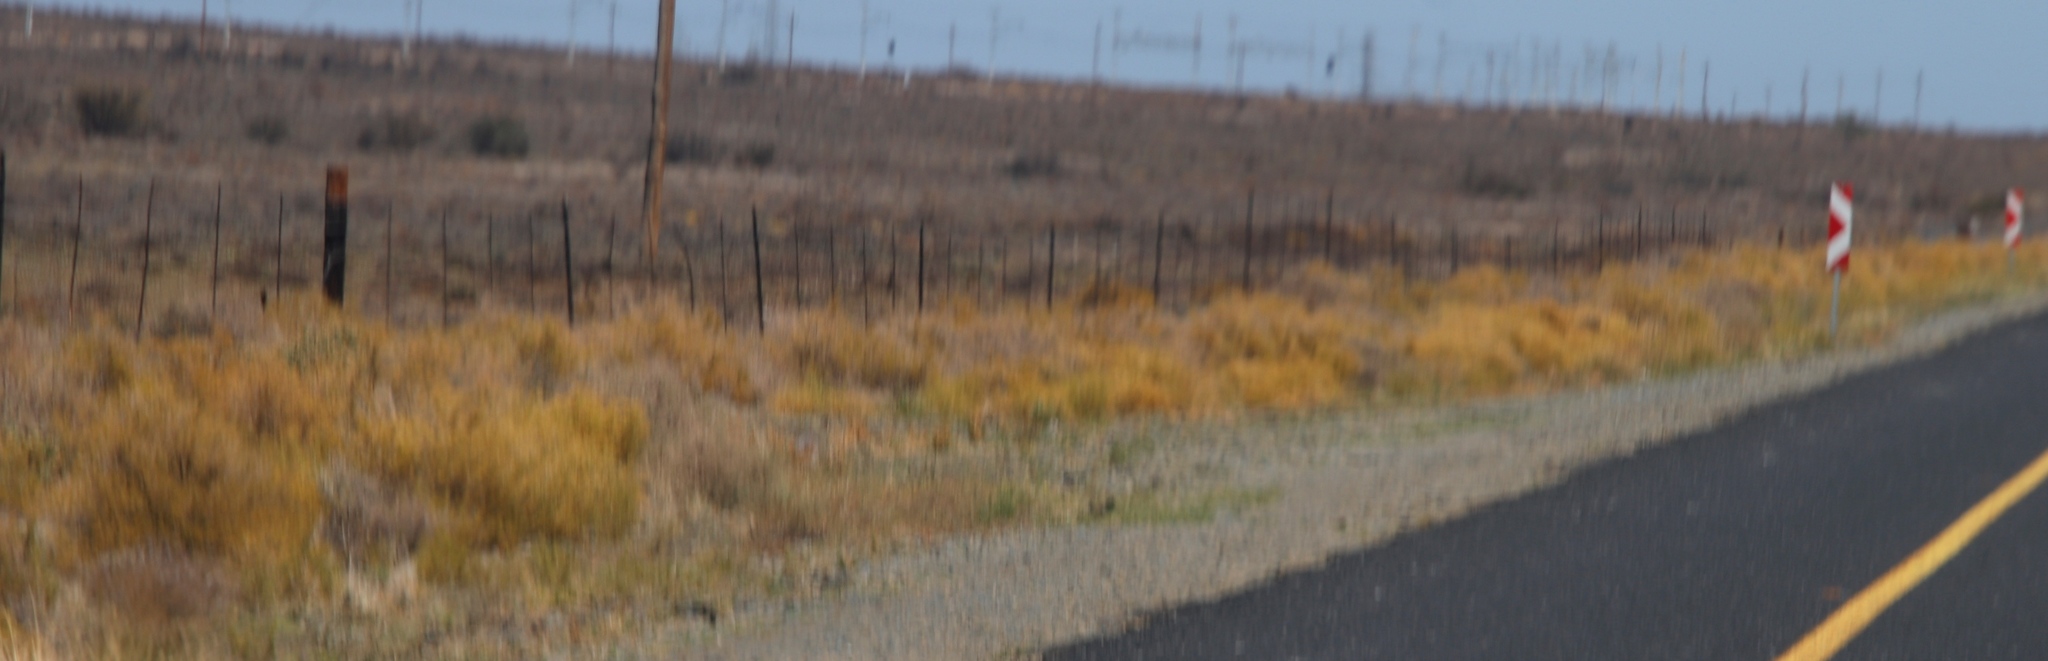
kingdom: Plantae
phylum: Tracheophyta
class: Magnoliopsida
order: Caryophyllales
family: Aizoaceae
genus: Aizoon
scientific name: Aizoon africanum
